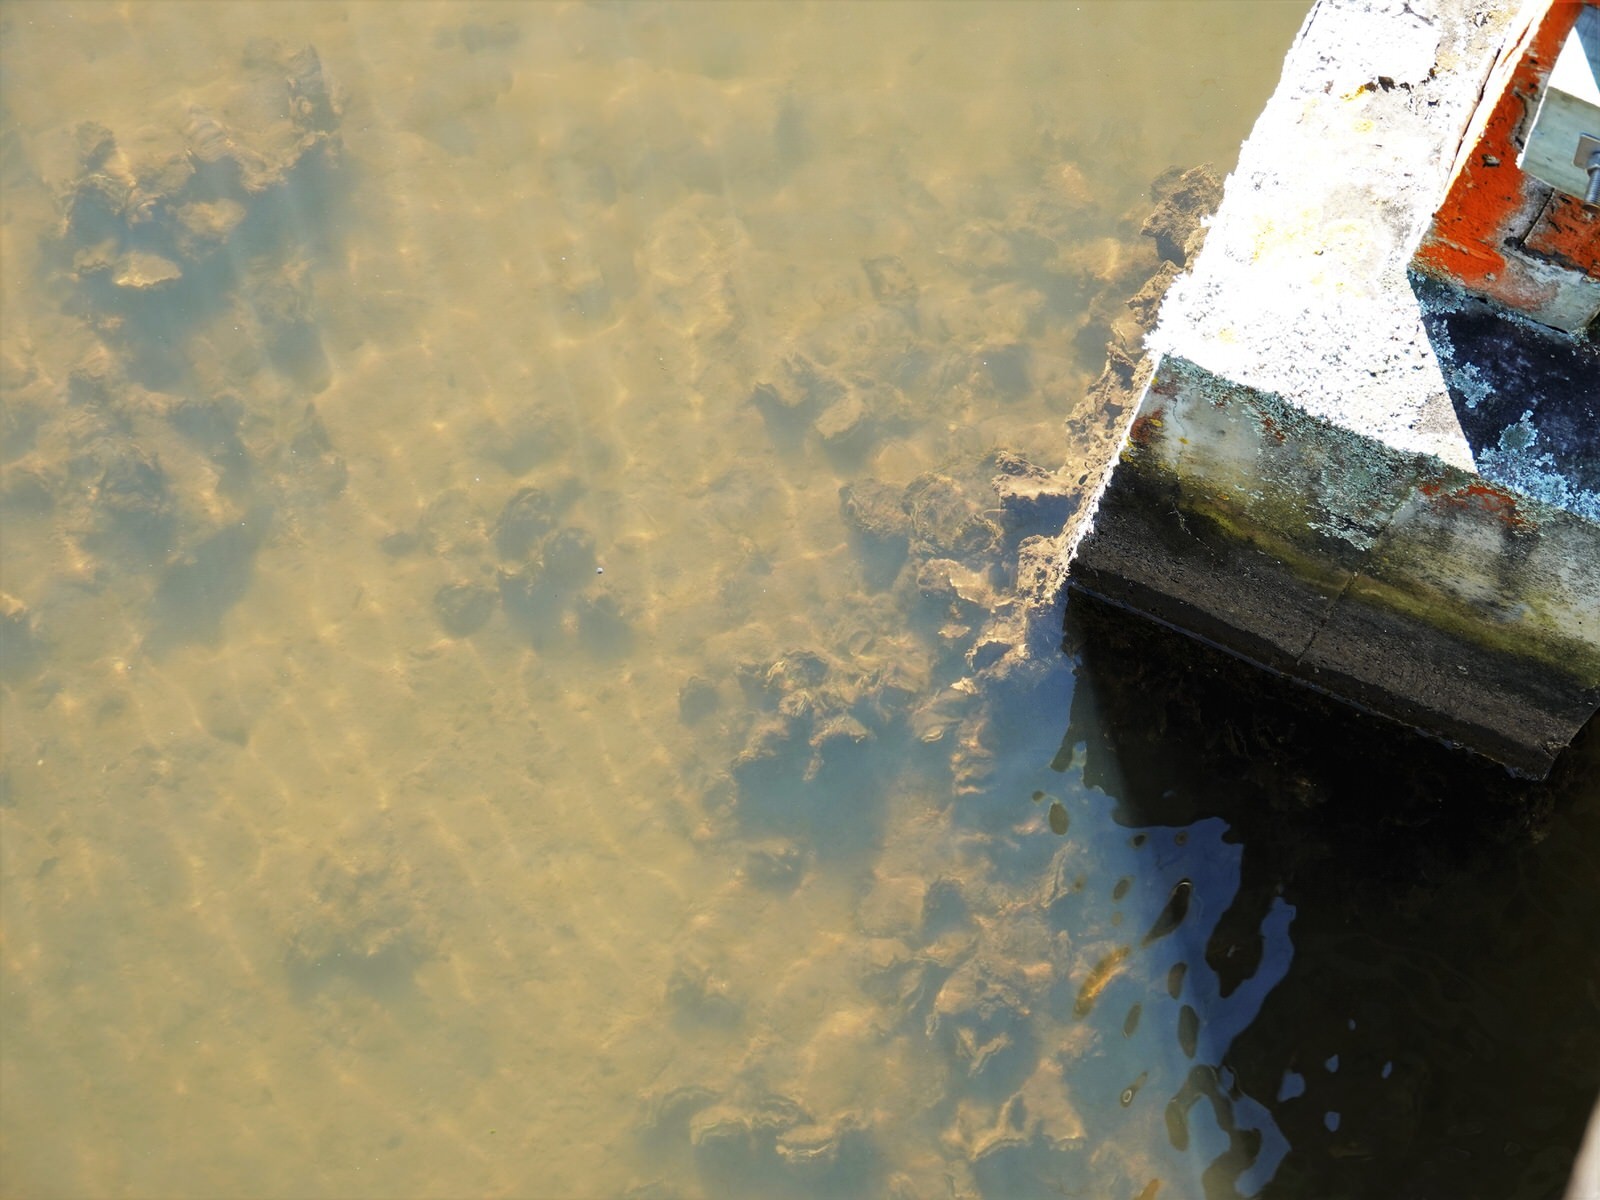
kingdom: Animalia
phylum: Mollusca
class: Bivalvia
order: Ostreida
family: Ostreidae
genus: Magallana
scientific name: Magallana gigas
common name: Pacific oyster
